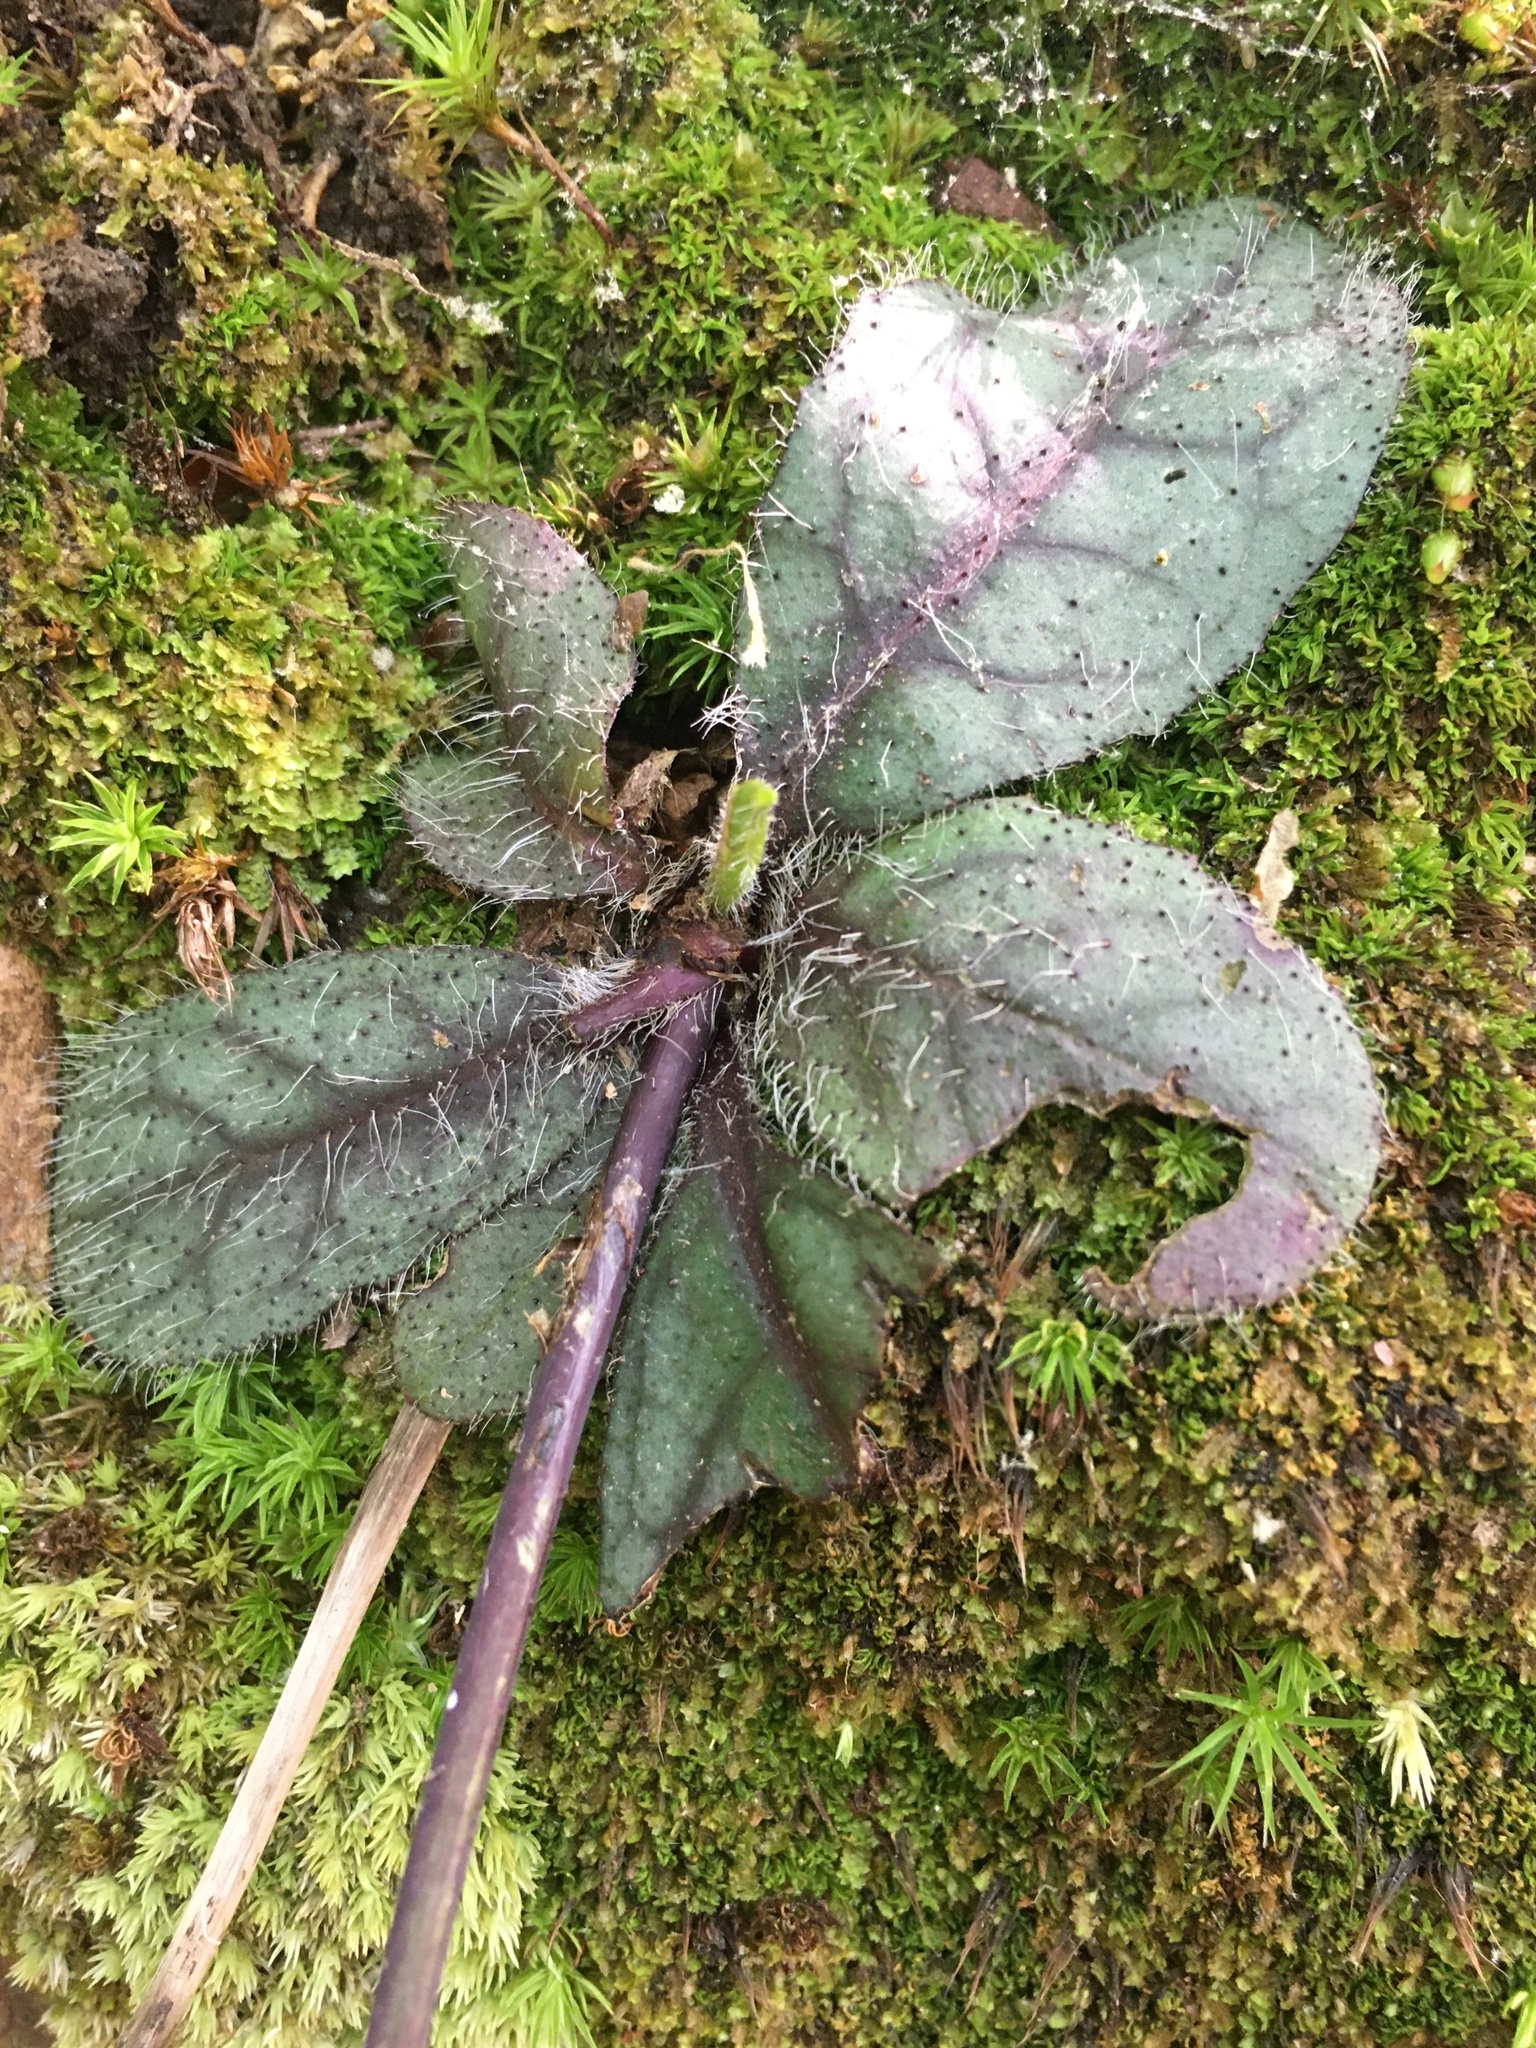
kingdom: Plantae
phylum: Tracheophyta
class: Magnoliopsida
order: Asterales
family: Asteraceae
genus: Hieracium
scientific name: Hieracium venosum
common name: Rattlesnake hawkweed
